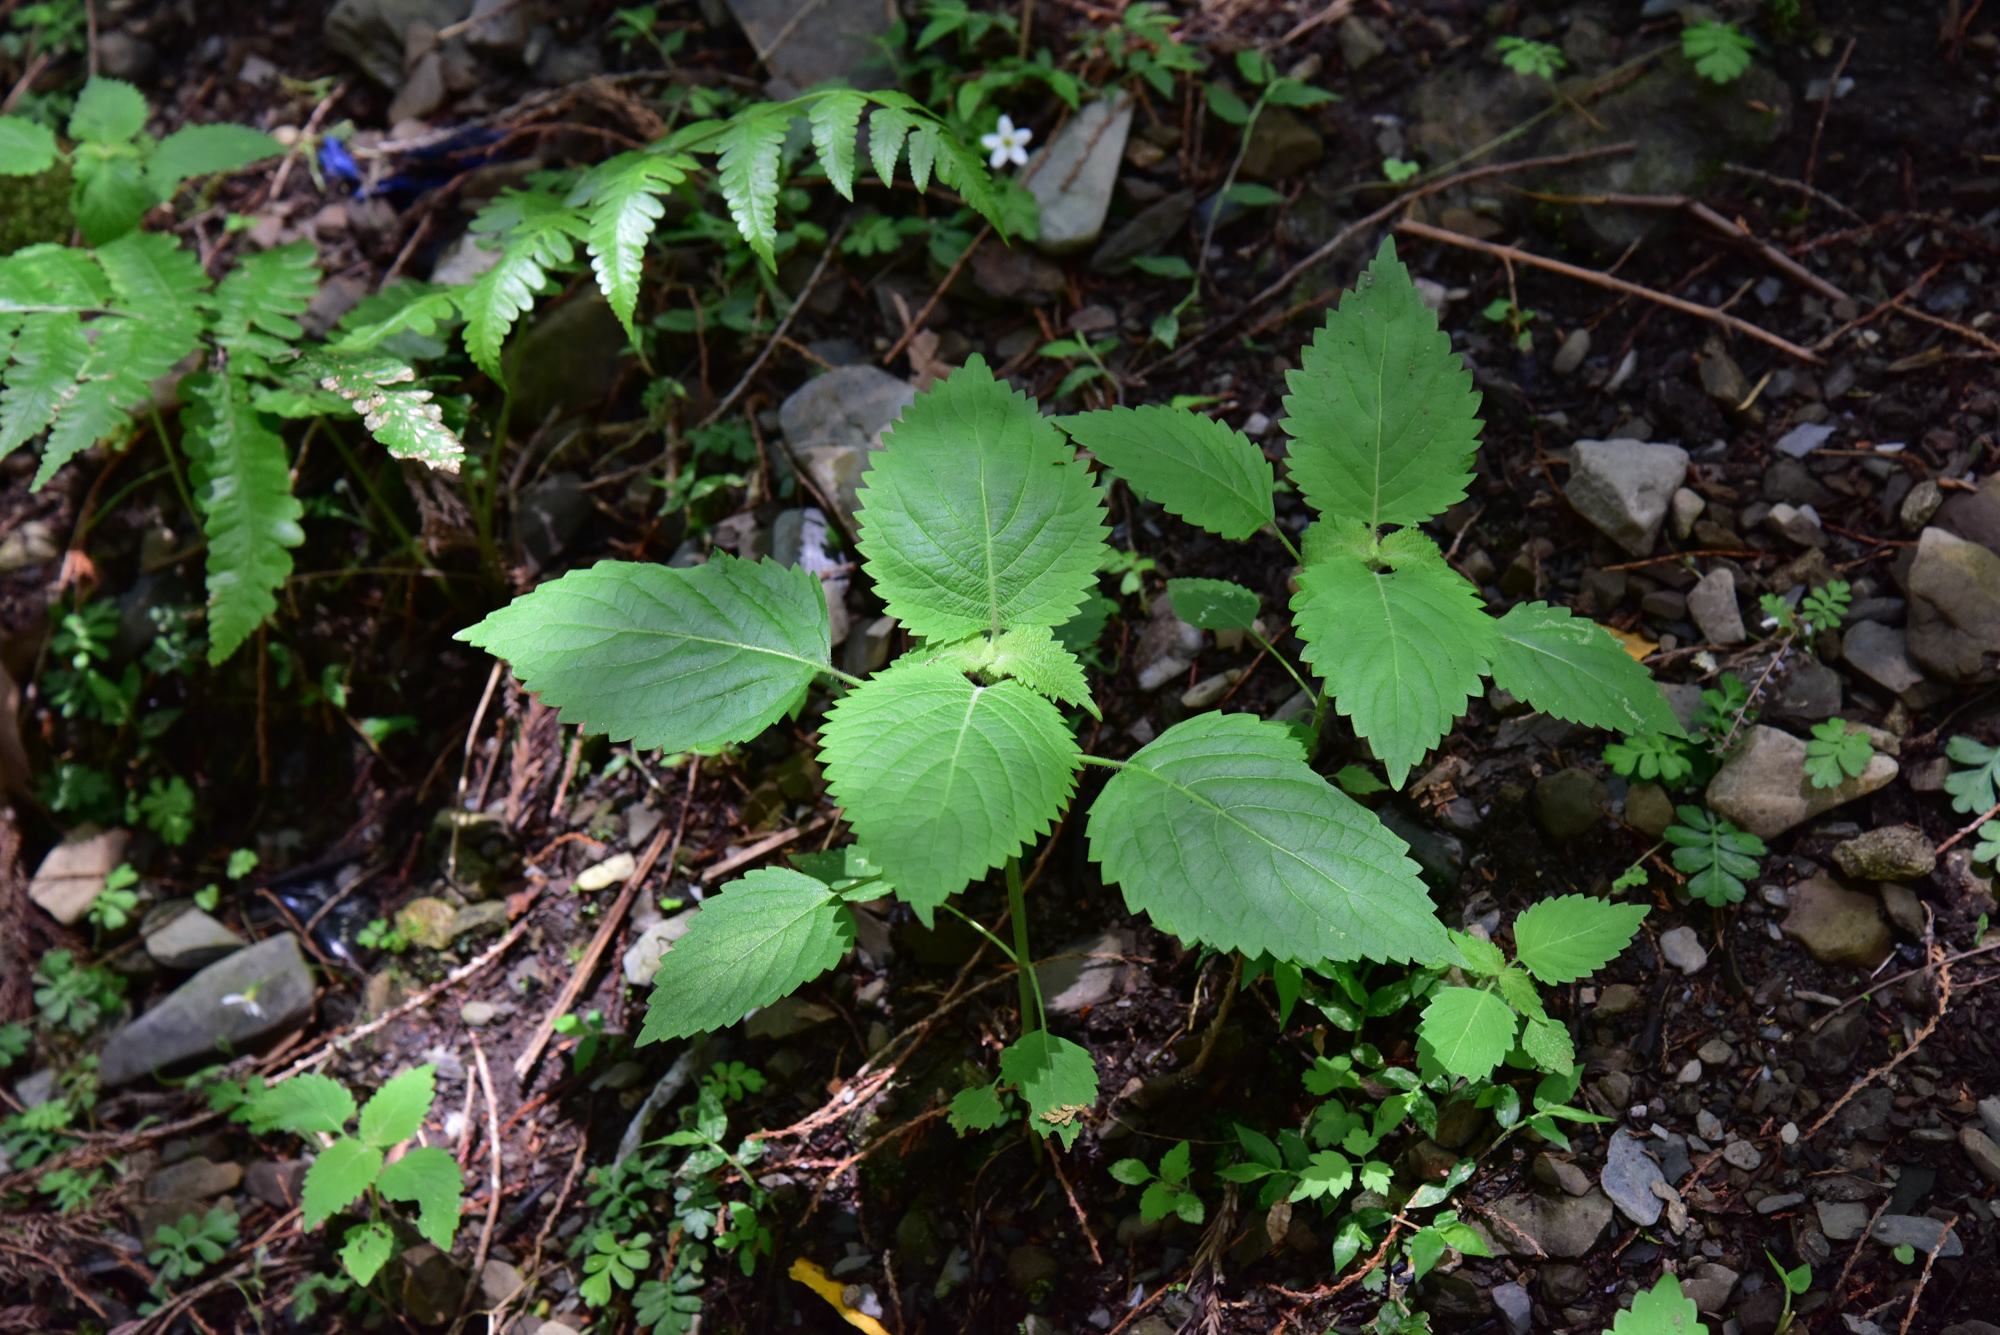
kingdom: Plantae
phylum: Tracheophyta
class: Magnoliopsida
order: Lamiales
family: Lamiaceae
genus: Perilla
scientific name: Perilla frutescens
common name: Perilla
